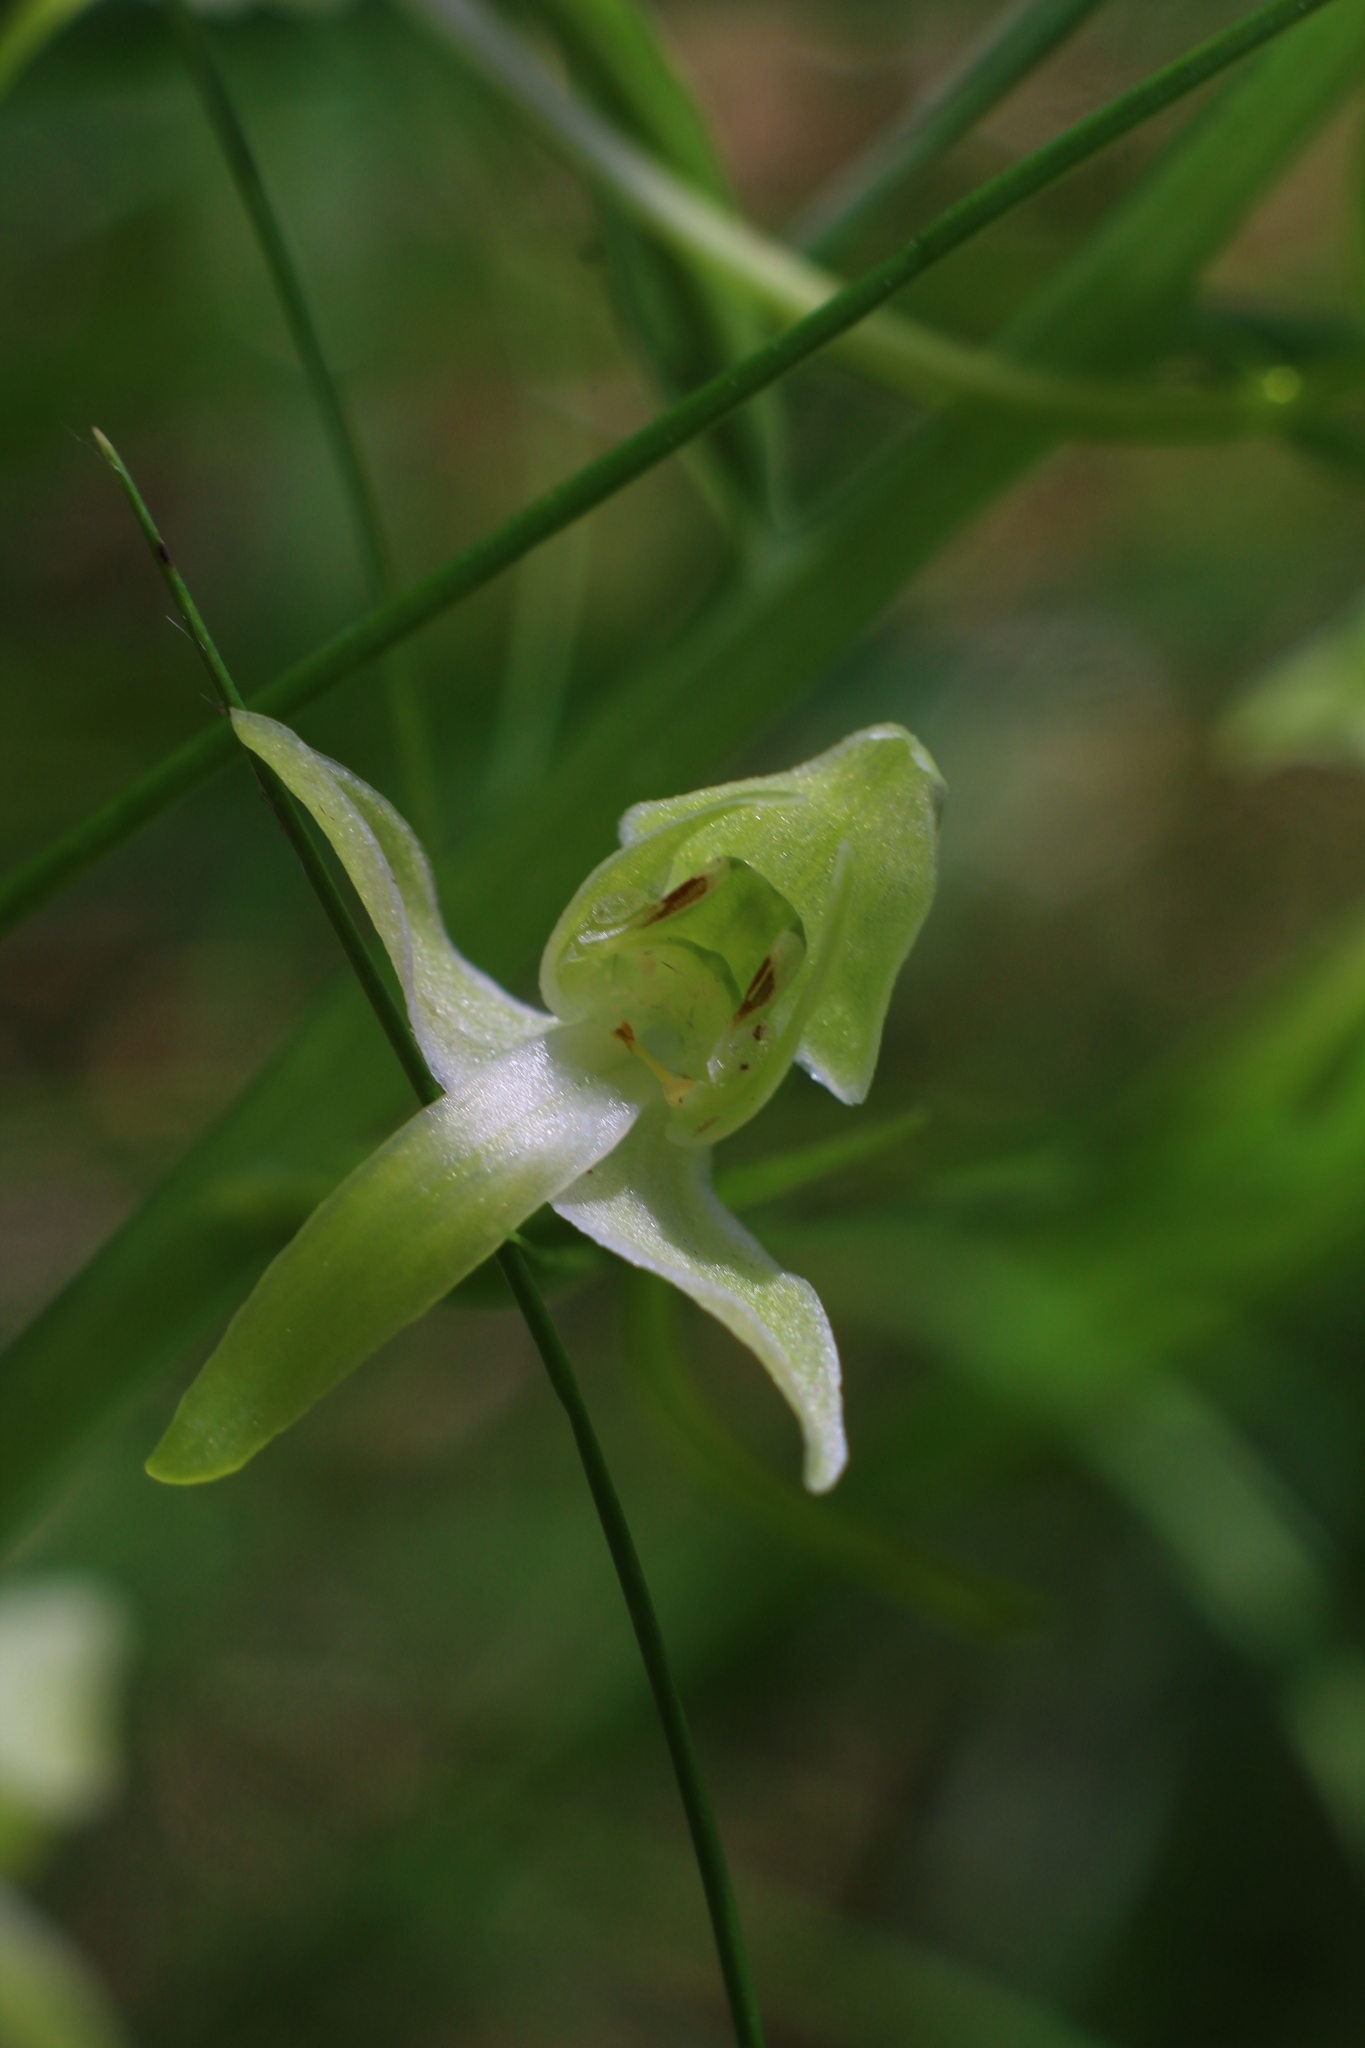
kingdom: Plantae
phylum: Tracheophyta
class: Liliopsida
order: Asparagales
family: Orchidaceae
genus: Platanthera
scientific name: Platanthera chlorantha
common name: Greater butterfly-orchid
